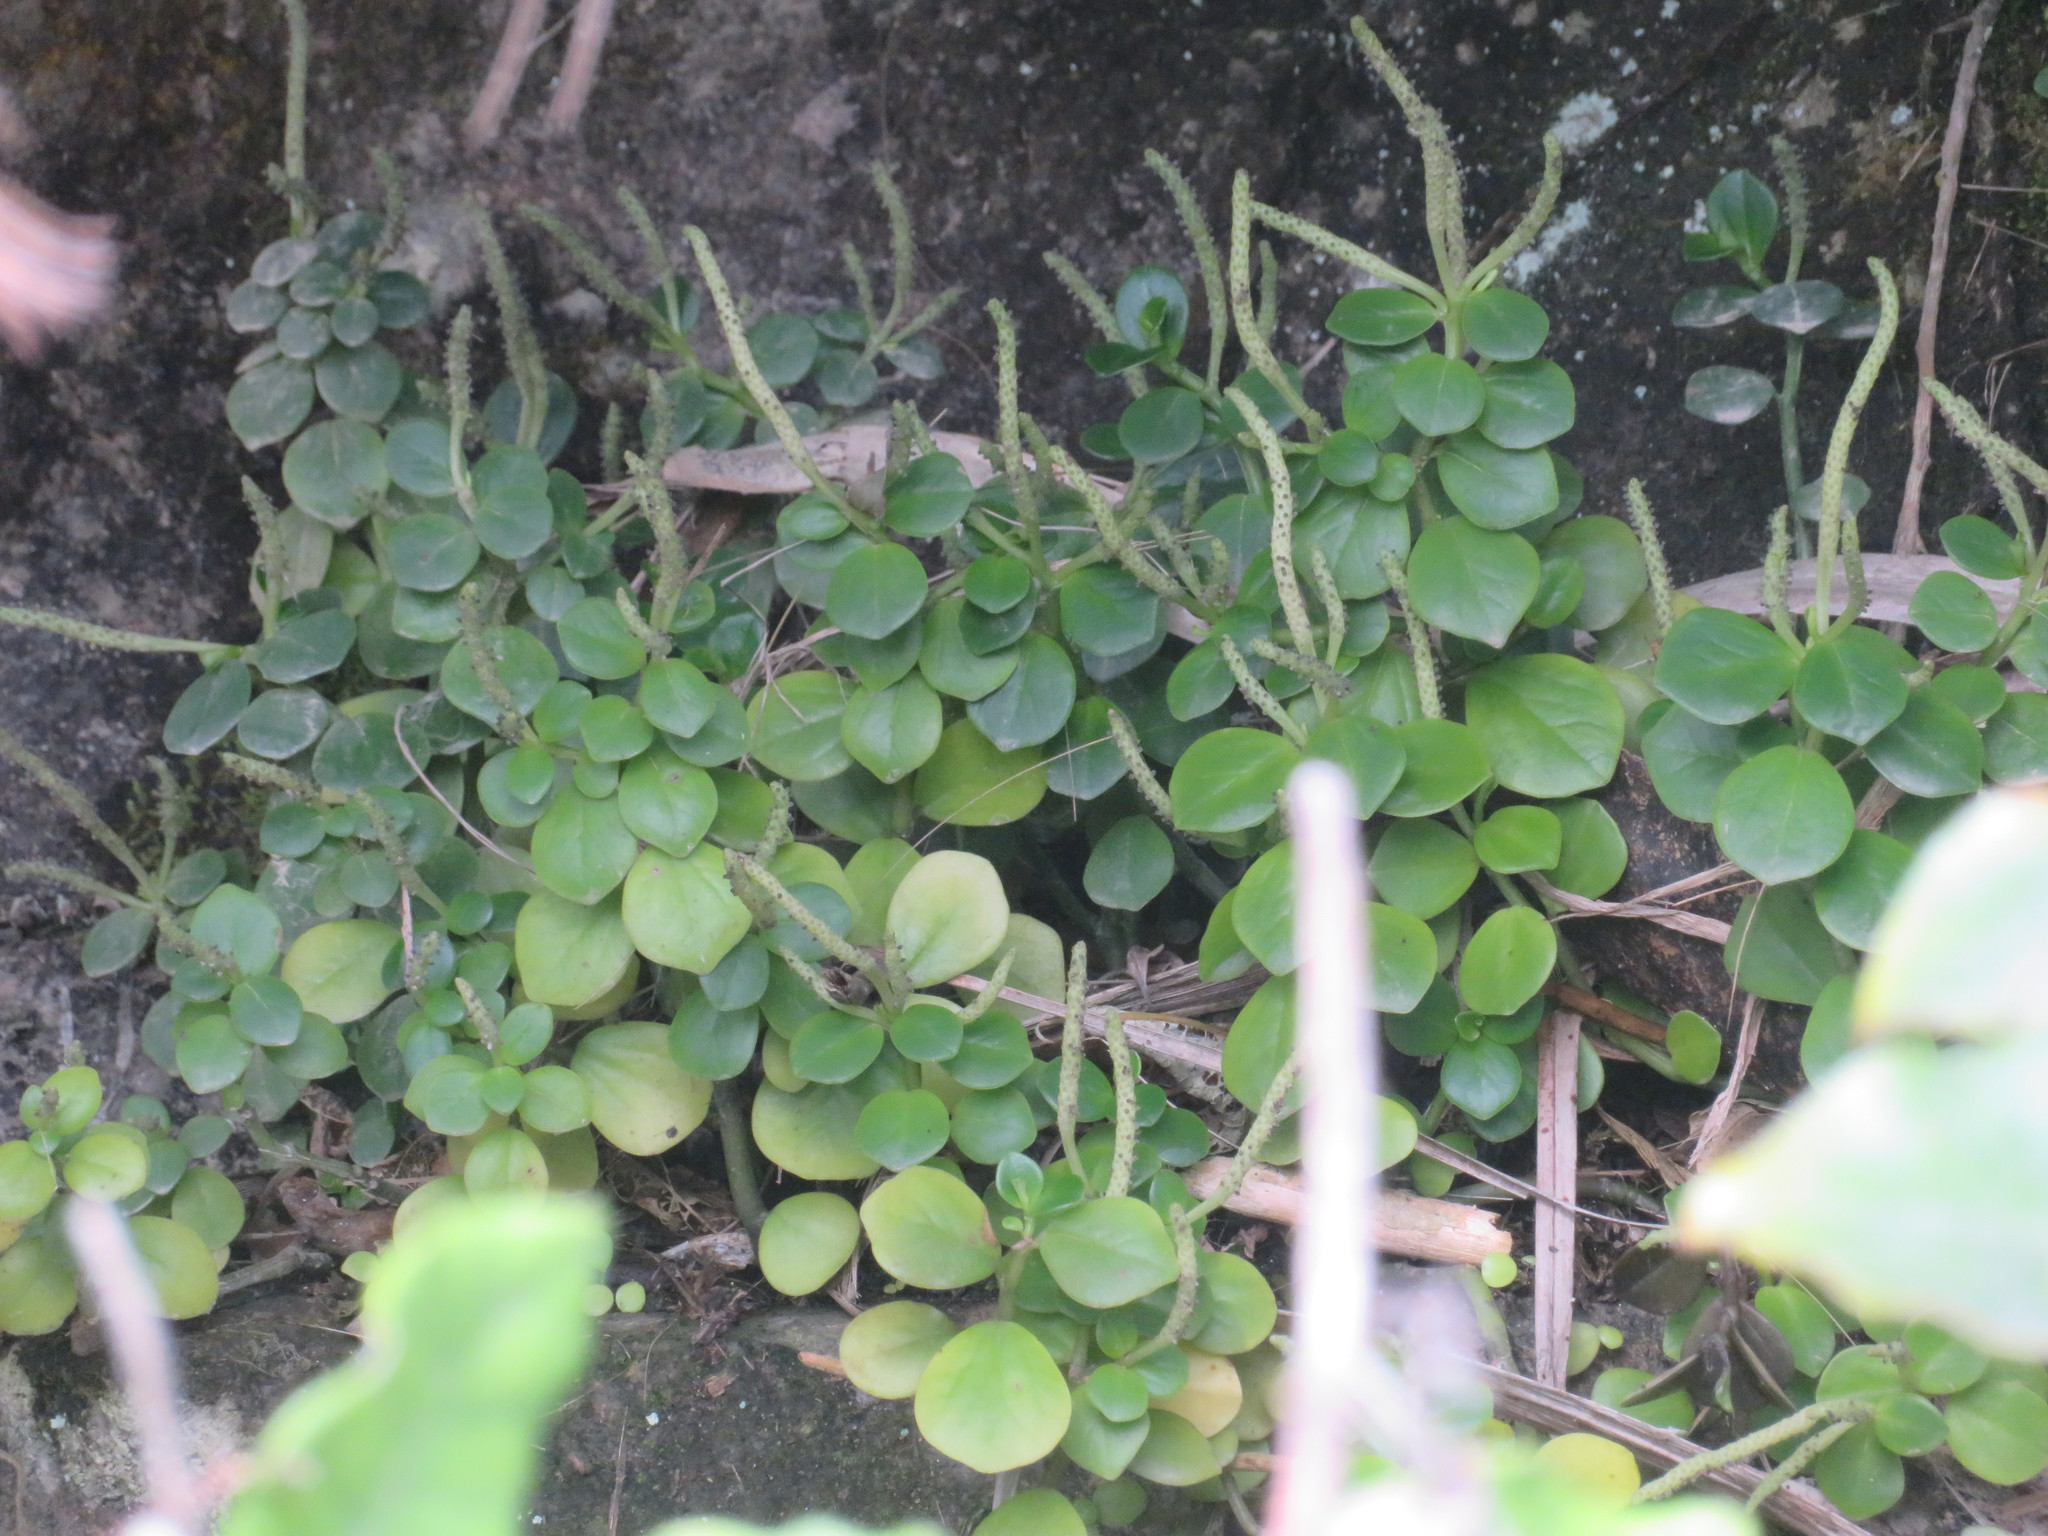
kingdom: Plantae
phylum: Tracheophyta
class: Magnoliopsida
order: Piperales
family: Piperaceae
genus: Peperomia
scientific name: Peperomia urvilleana
